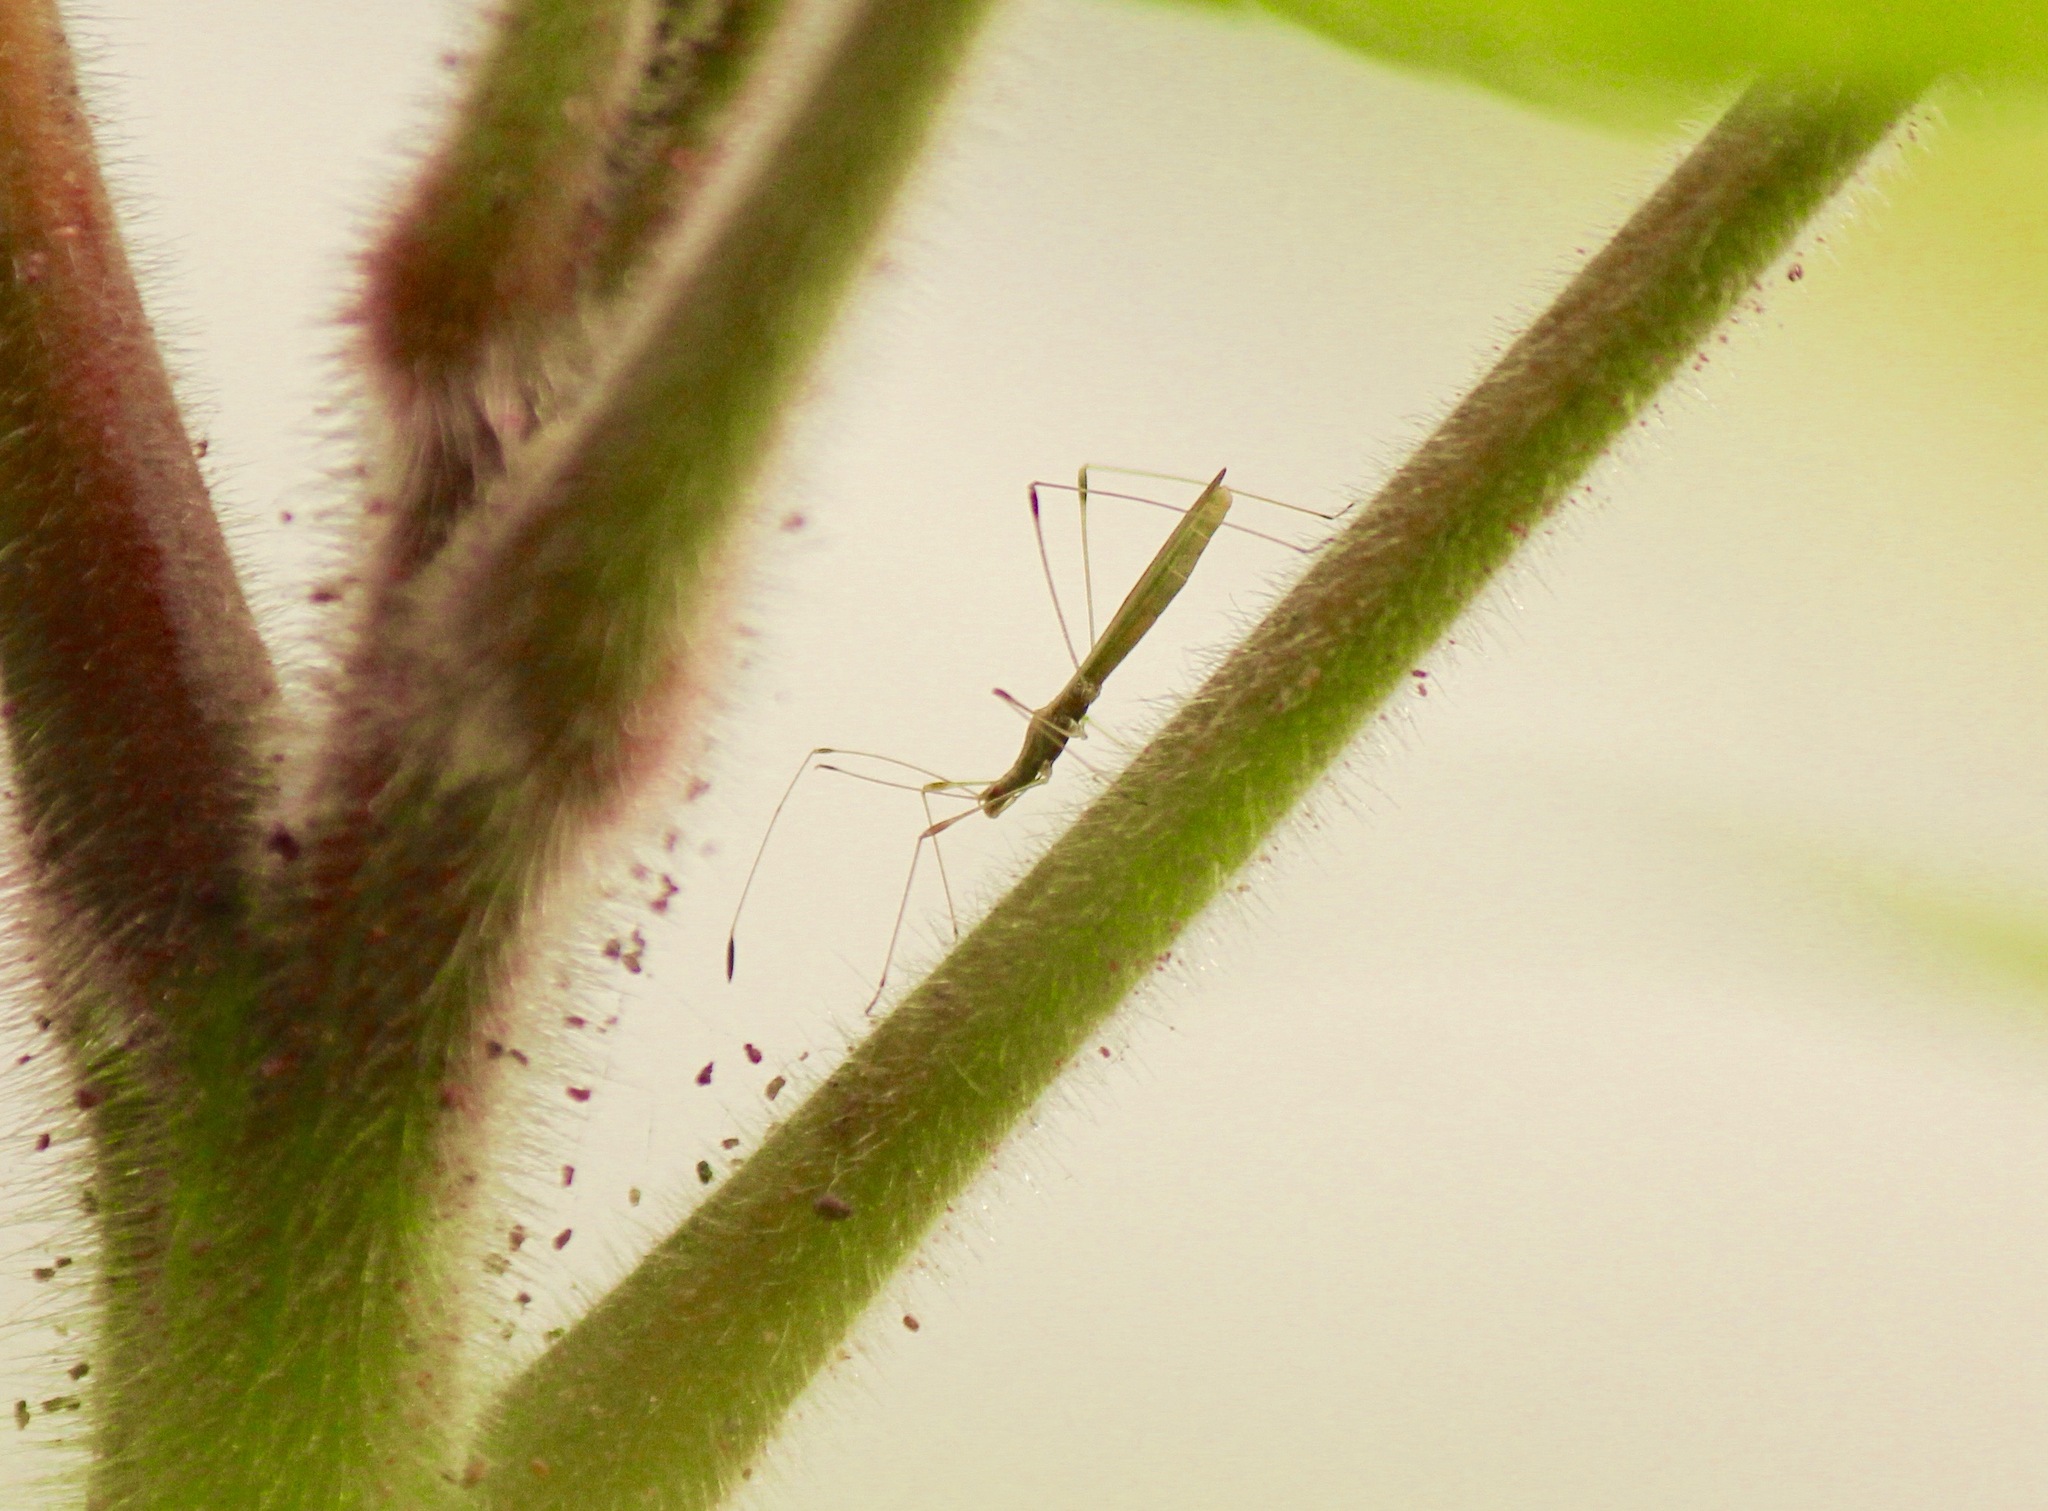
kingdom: Animalia
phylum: Arthropoda
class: Insecta
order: Hemiptera
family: Berytidae
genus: Neoneides
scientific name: Neoneides muticus
